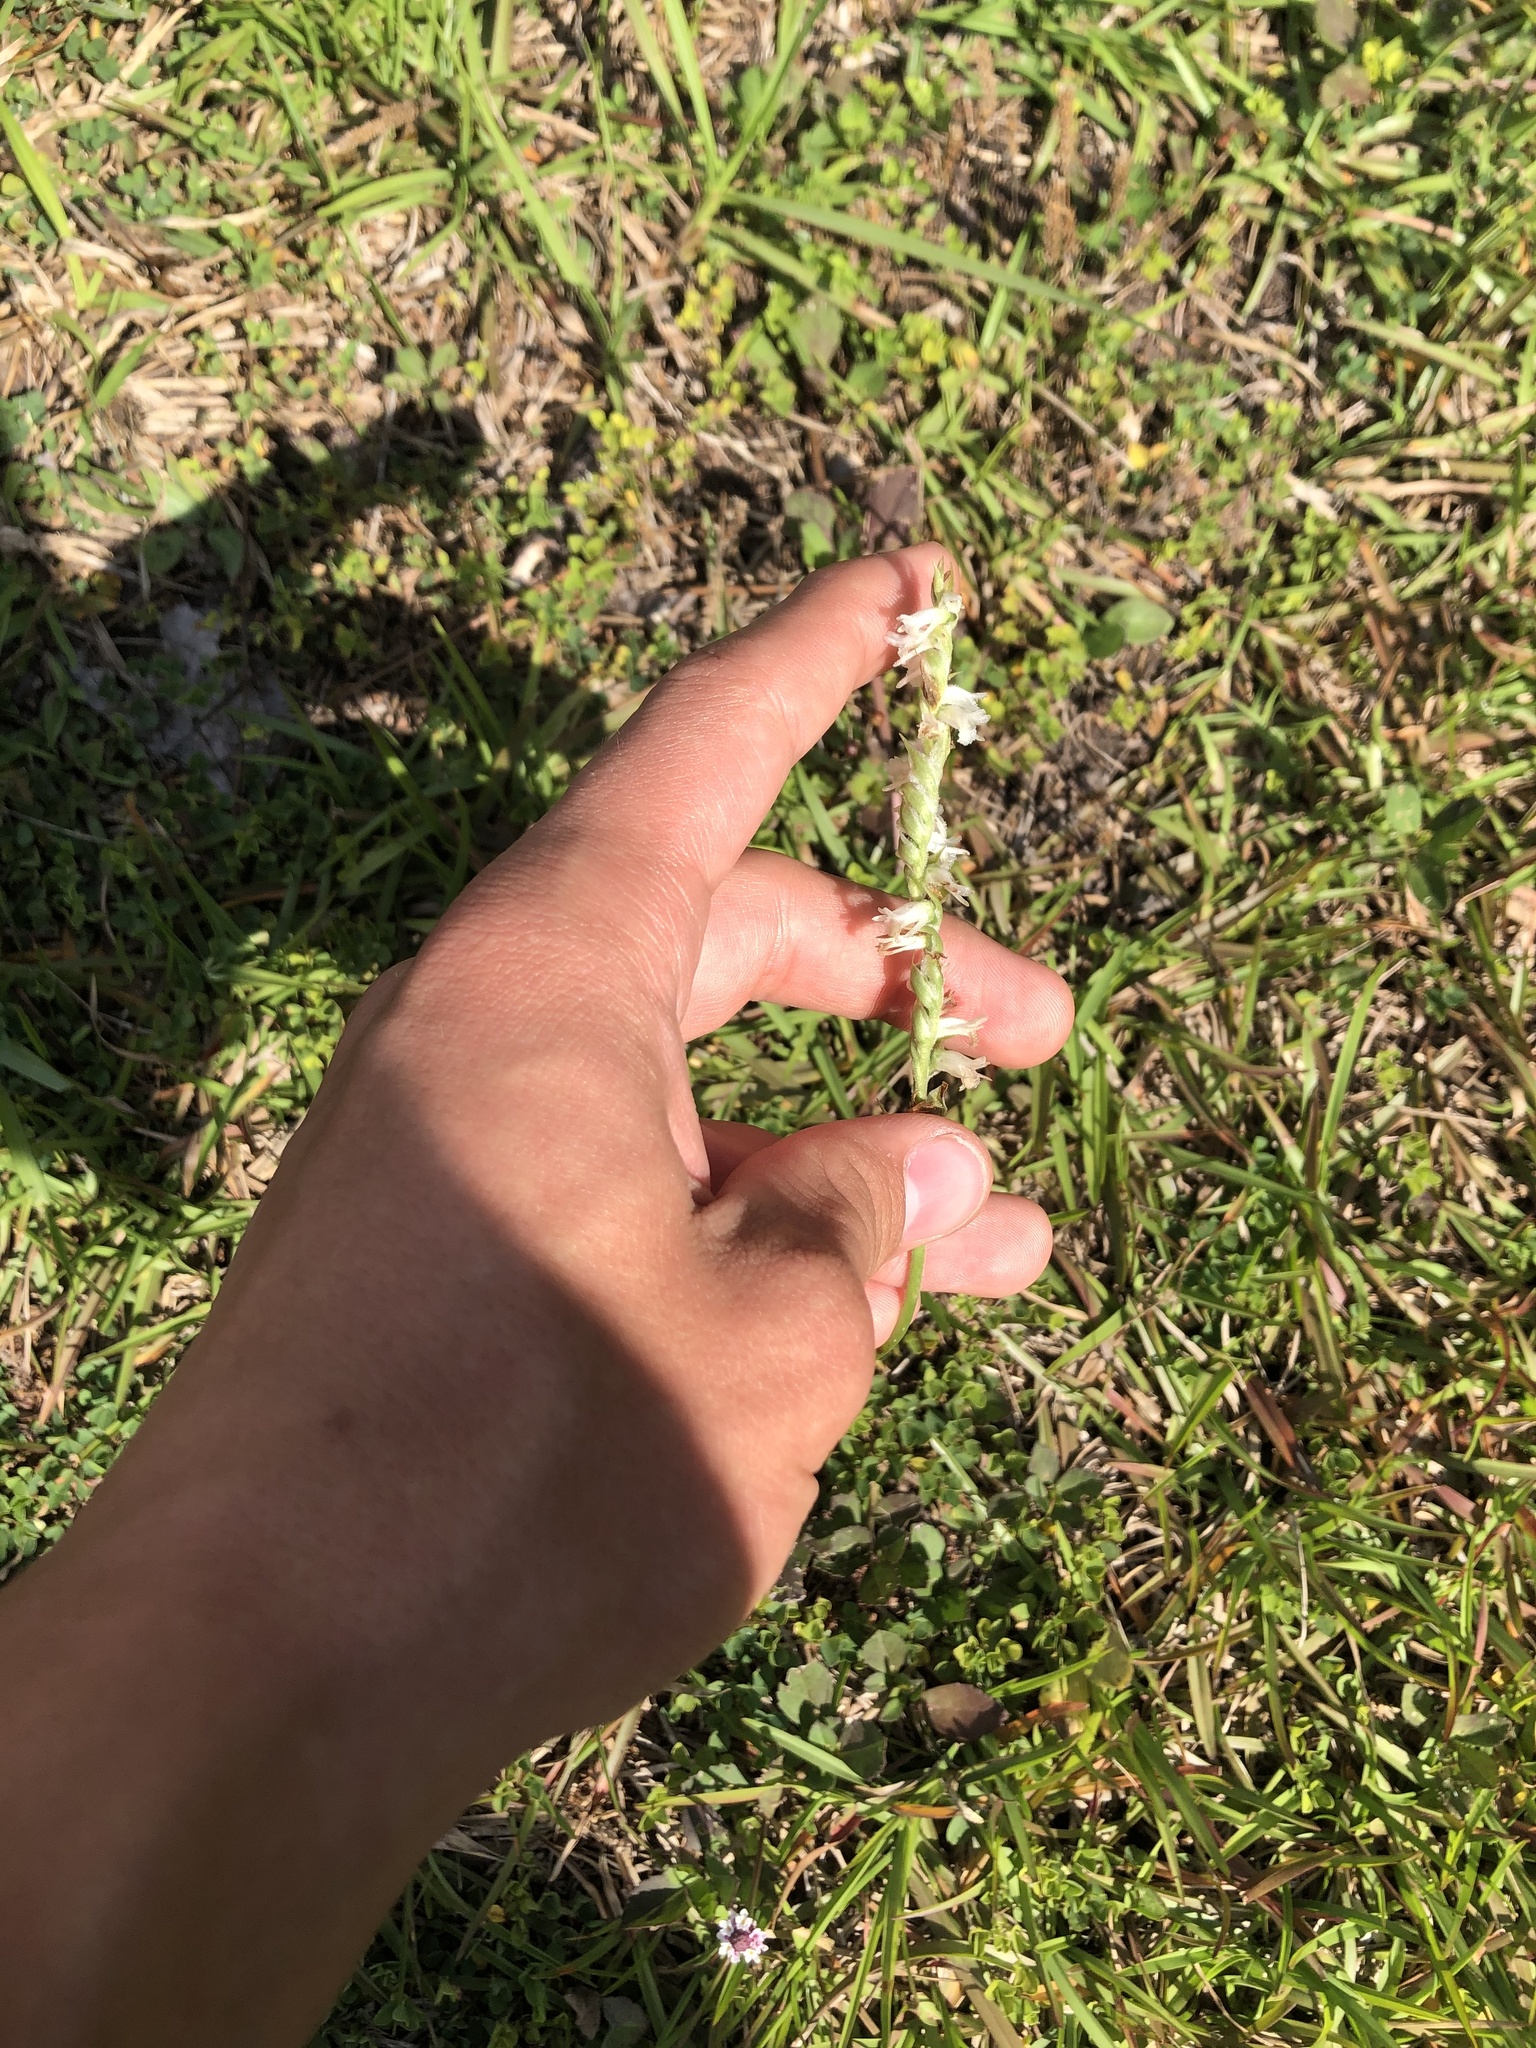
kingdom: Plantae
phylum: Tracheophyta
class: Liliopsida
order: Asparagales
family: Orchidaceae
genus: Spiranthes
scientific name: Spiranthes vernalis
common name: Spring ladies'-tresses
